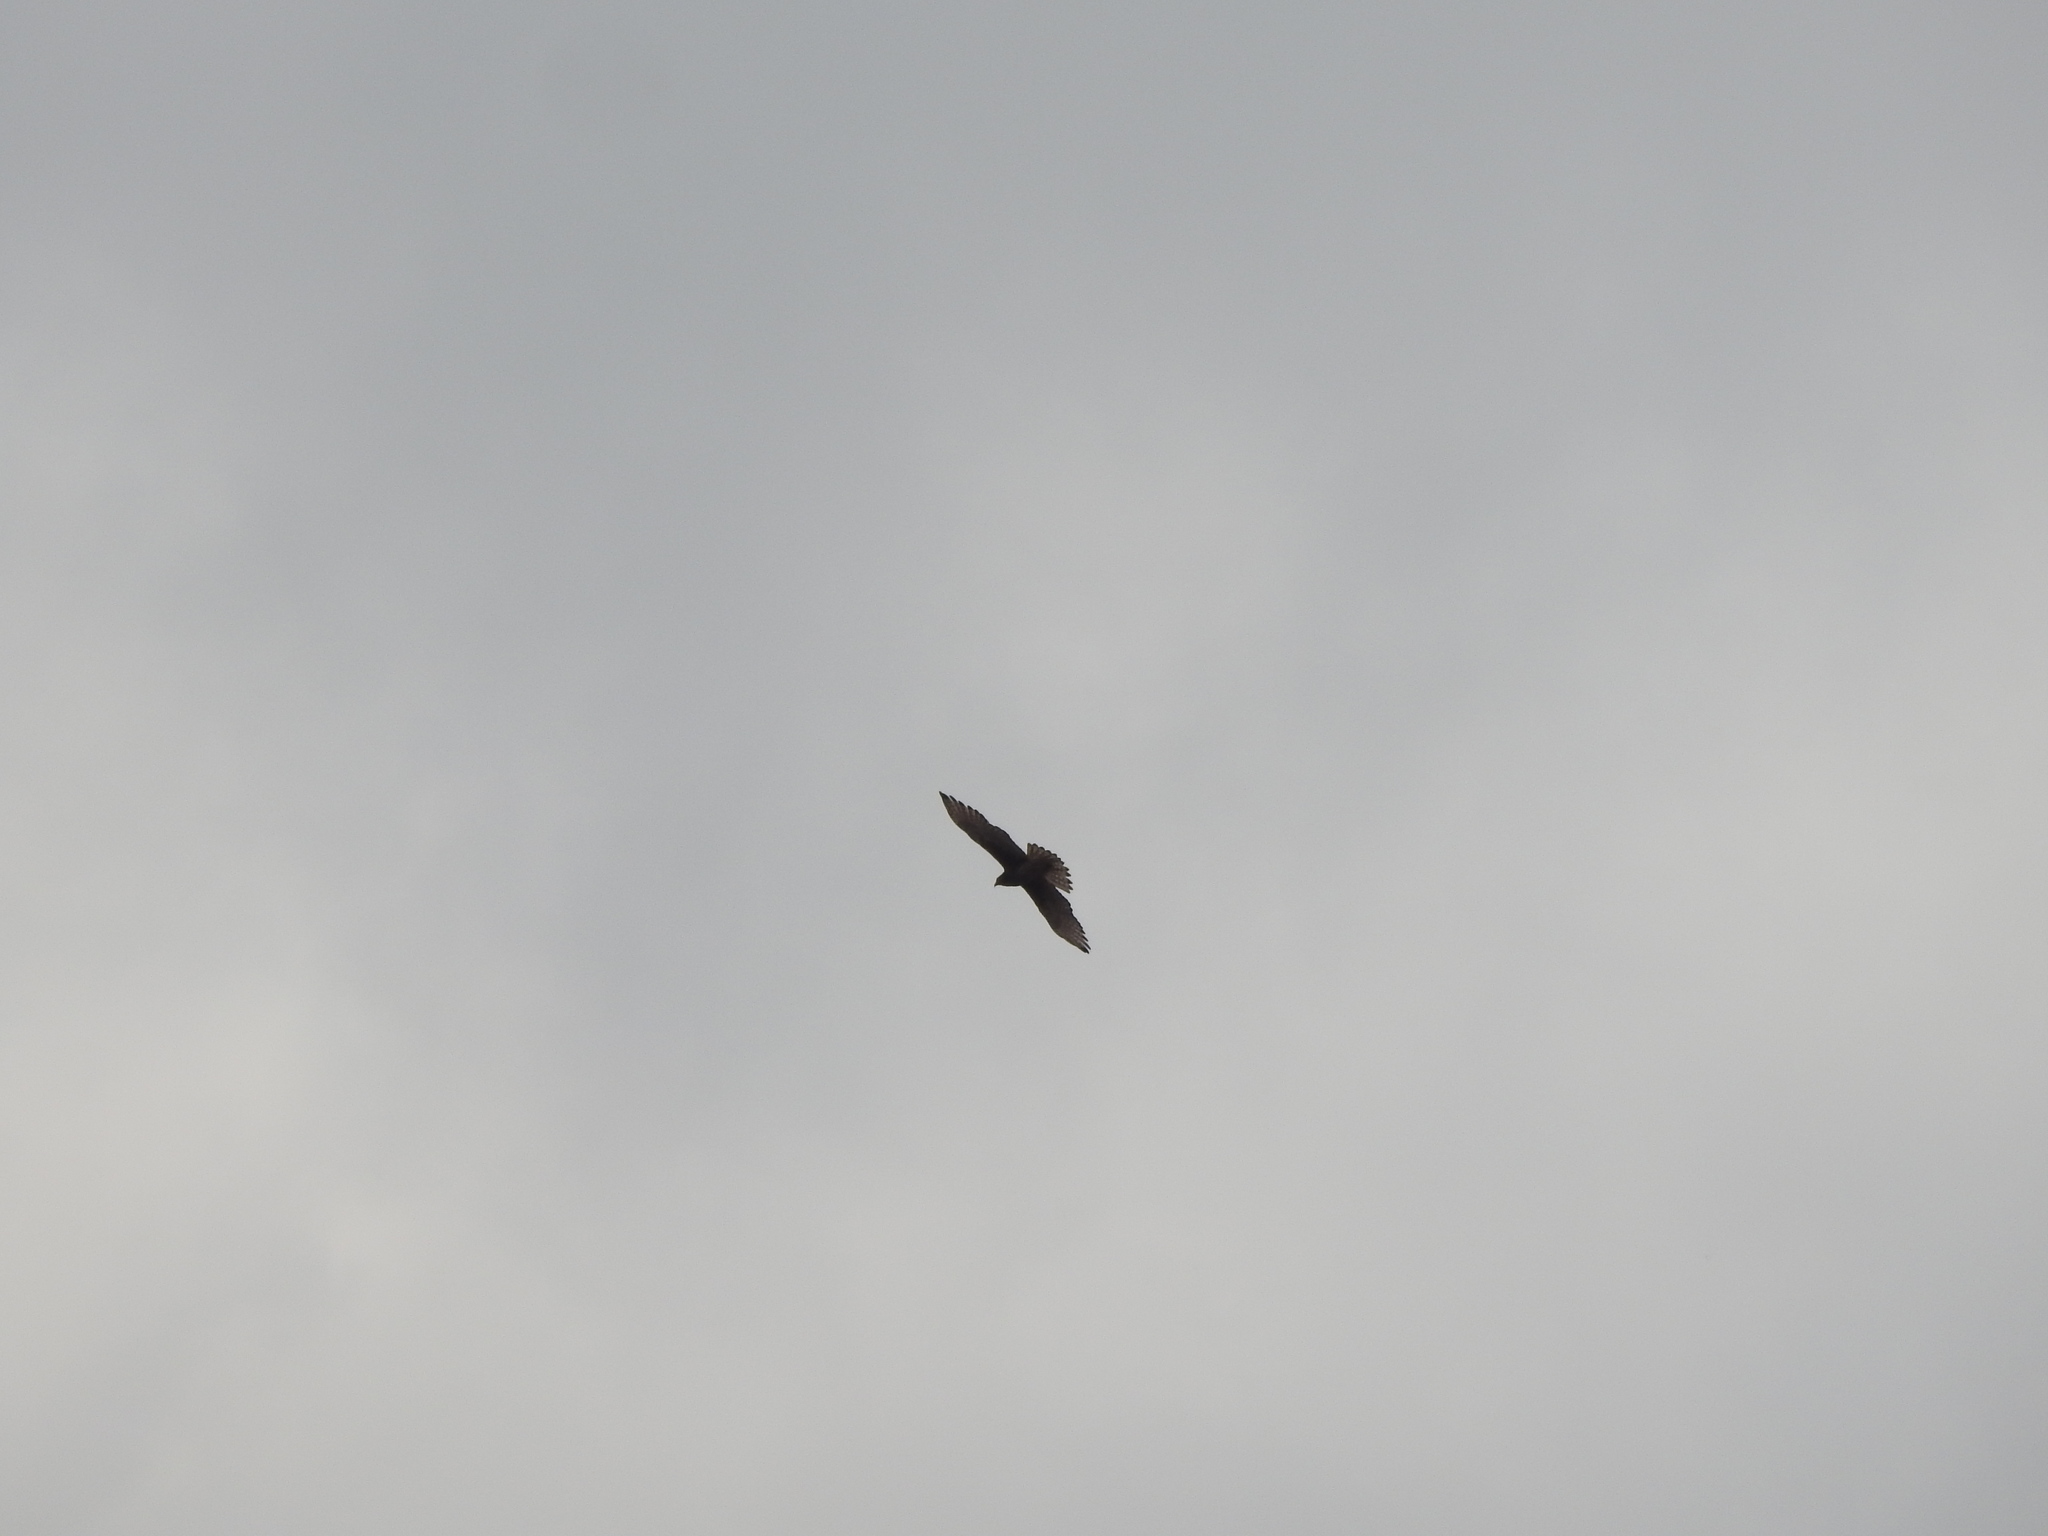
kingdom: Animalia
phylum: Chordata
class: Aves
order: Accipitriformes
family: Accipitridae
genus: Butastur
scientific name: Butastur teesa
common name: White-eyed buzzard
